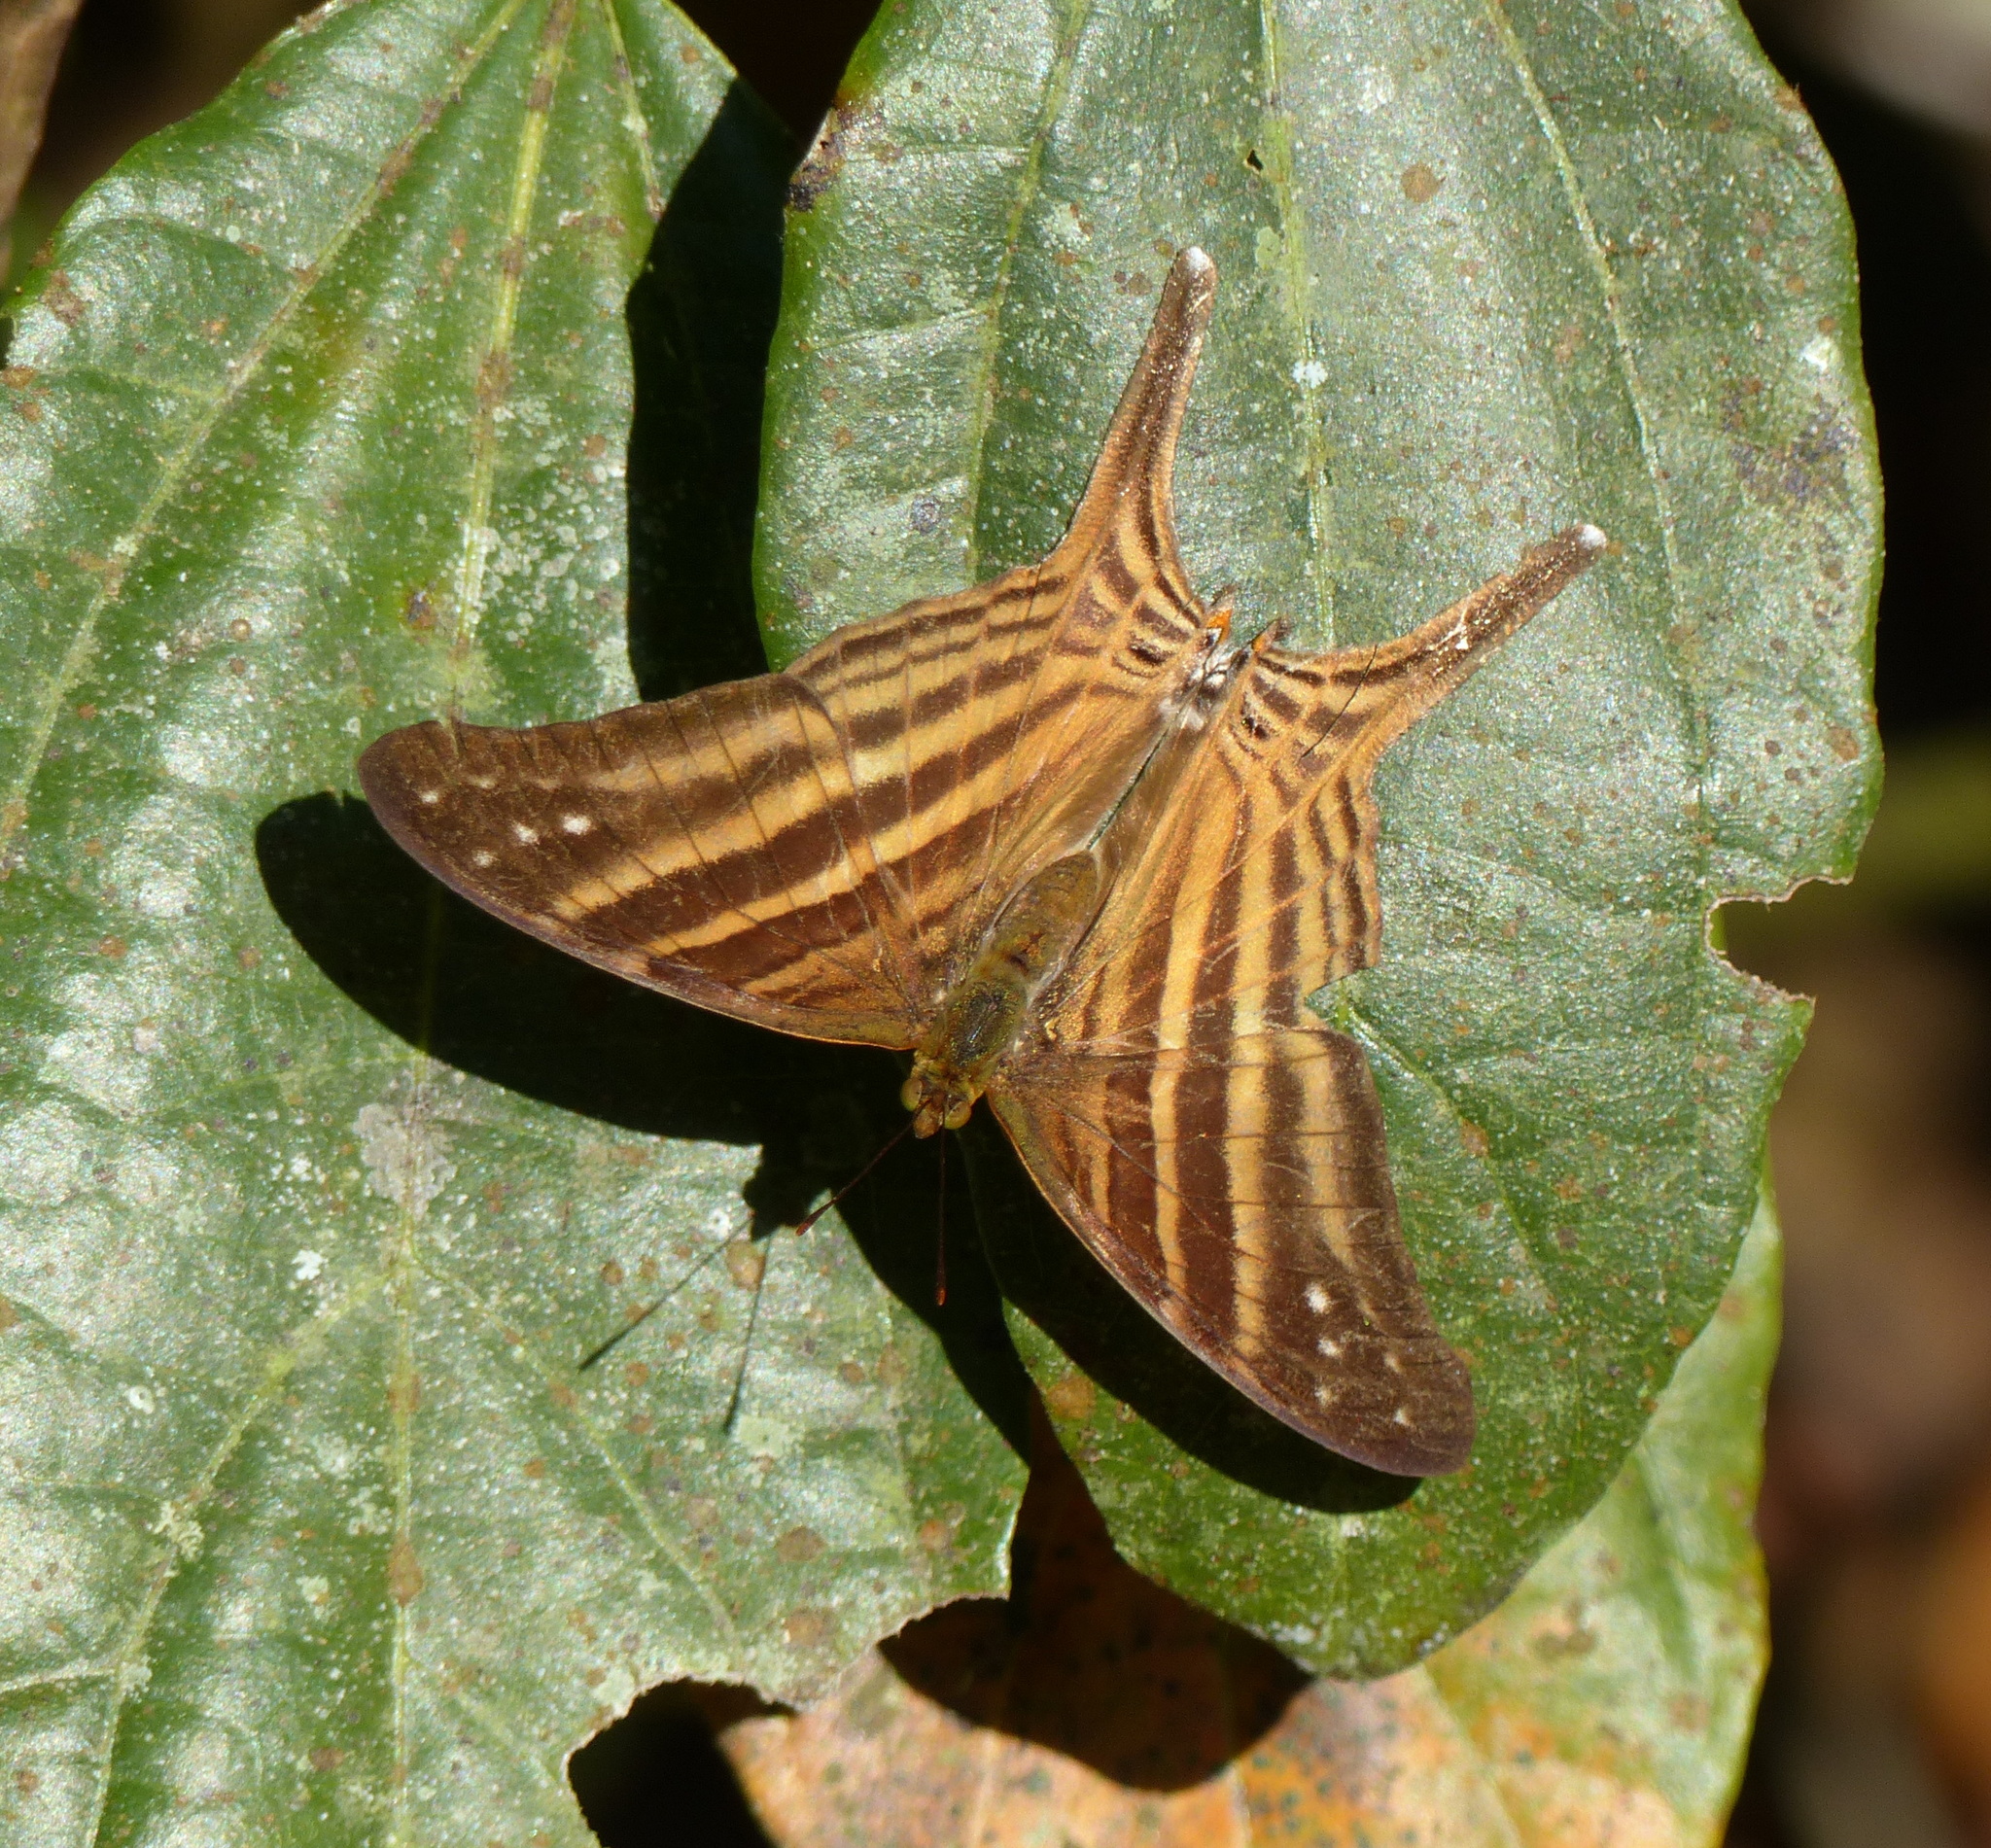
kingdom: Animalia
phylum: Arthropoda
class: Insecta
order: Lepidoptera
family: Nymphalidae
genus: Marpesia
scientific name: Marpesia chiron
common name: Many-banded daggerwing
